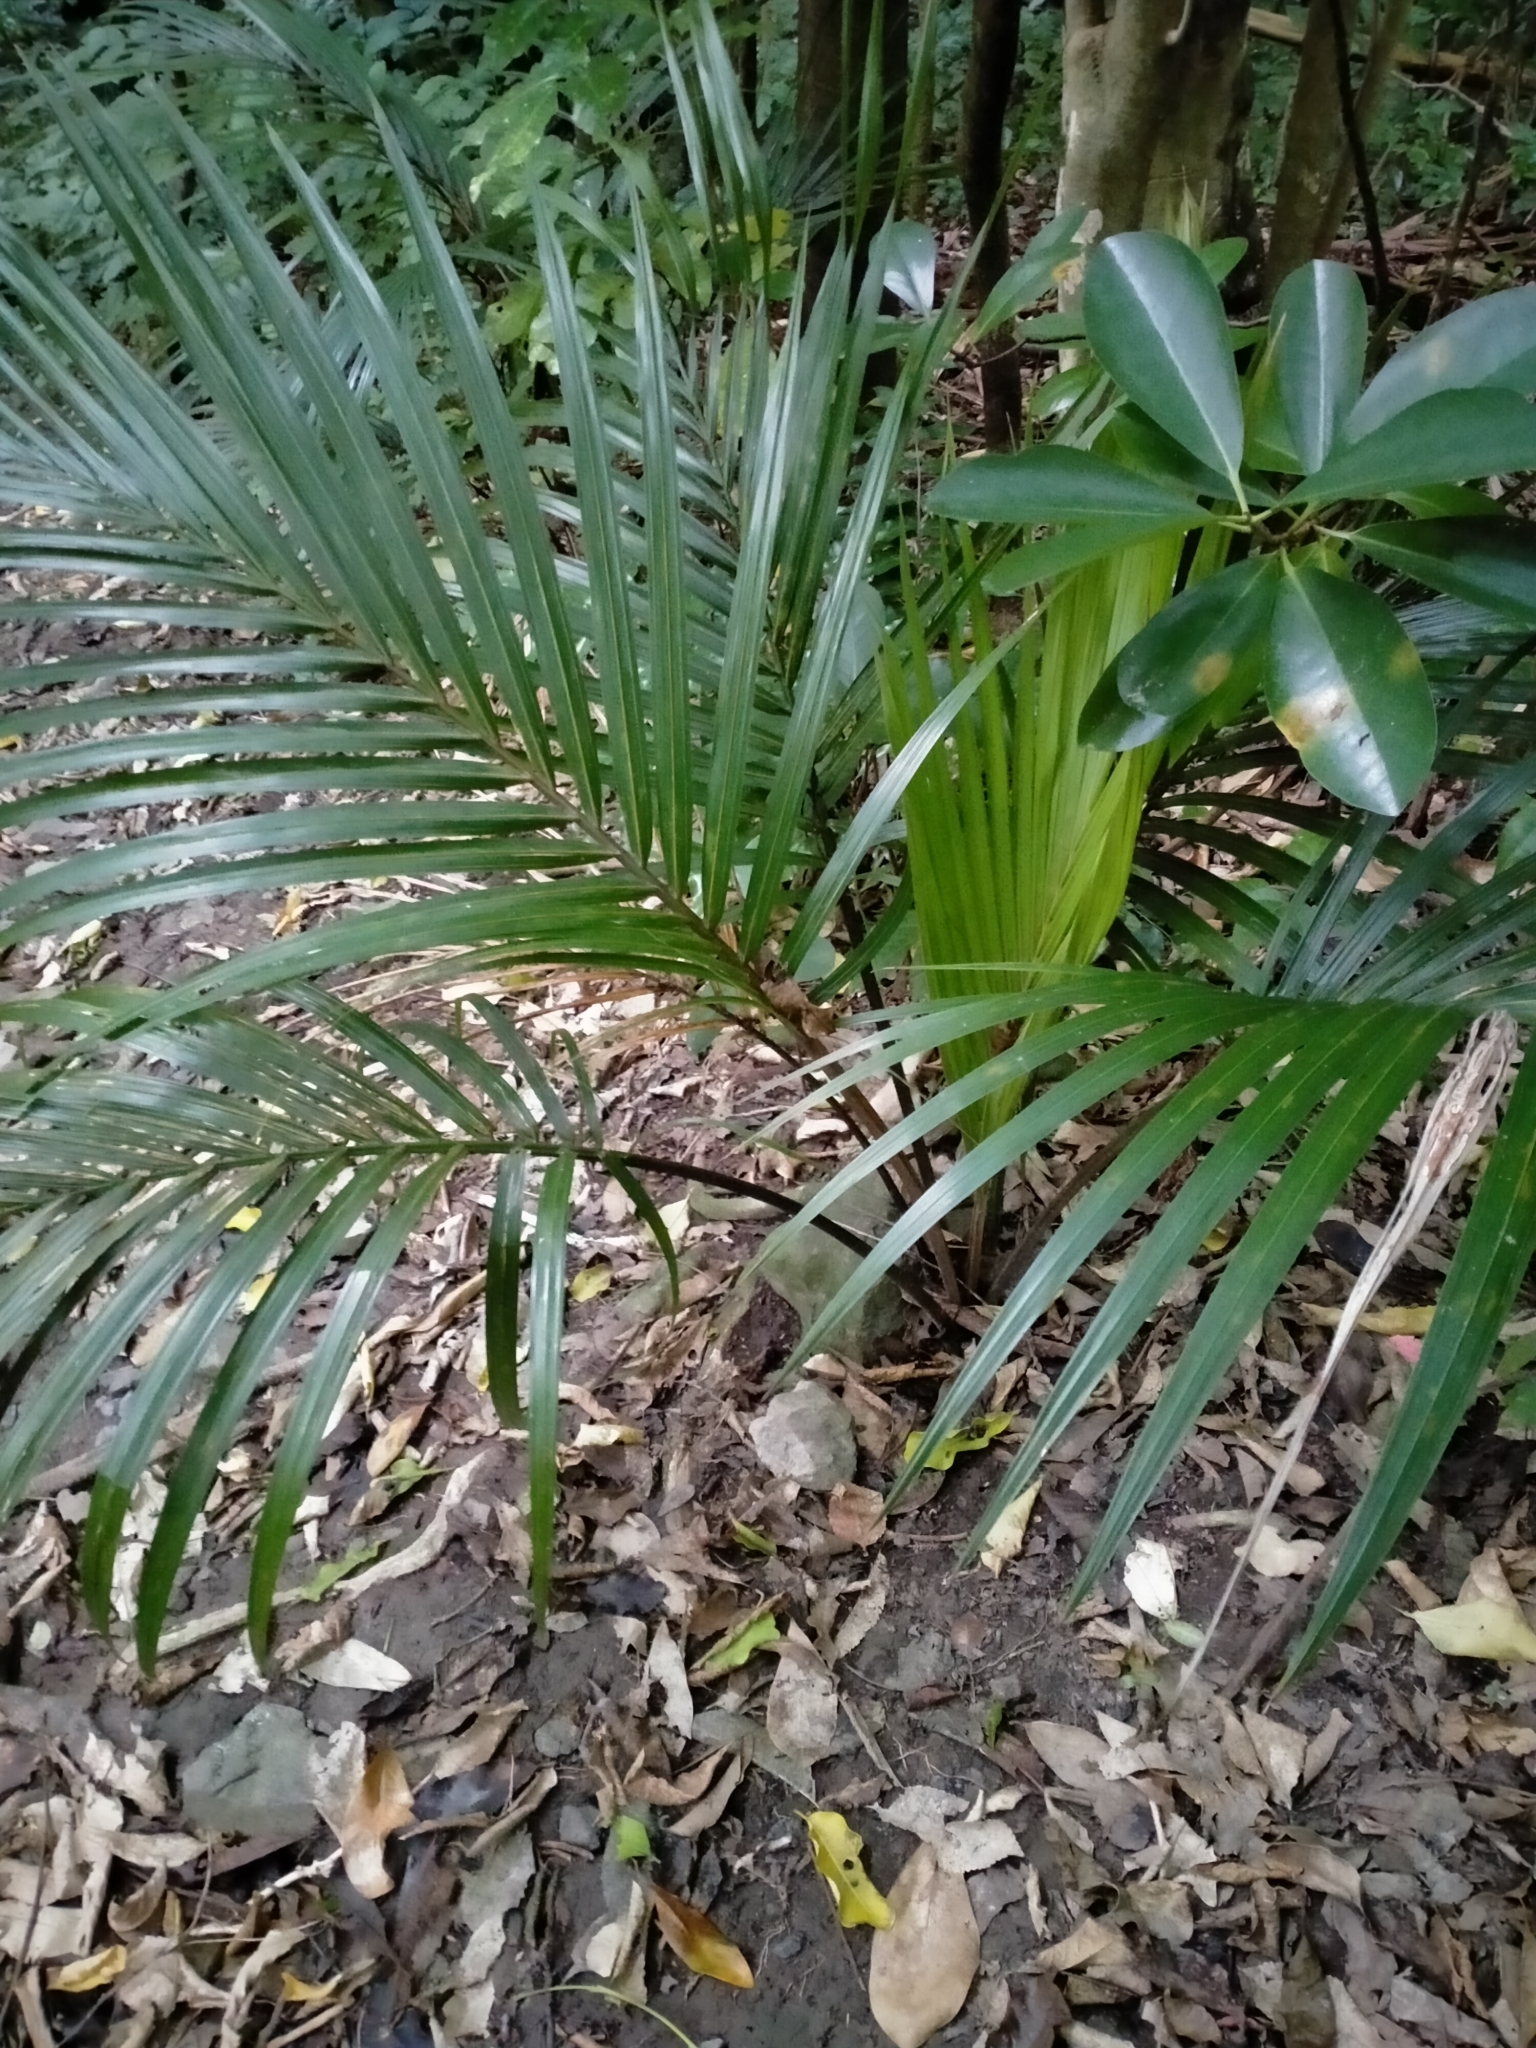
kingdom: Plantae
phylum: Tracheophyta
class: Liliopsida
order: Arecales
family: Arecaceae
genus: Rhopalostylis
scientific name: Rhopalostylis sapida
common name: Feather-duster palm
